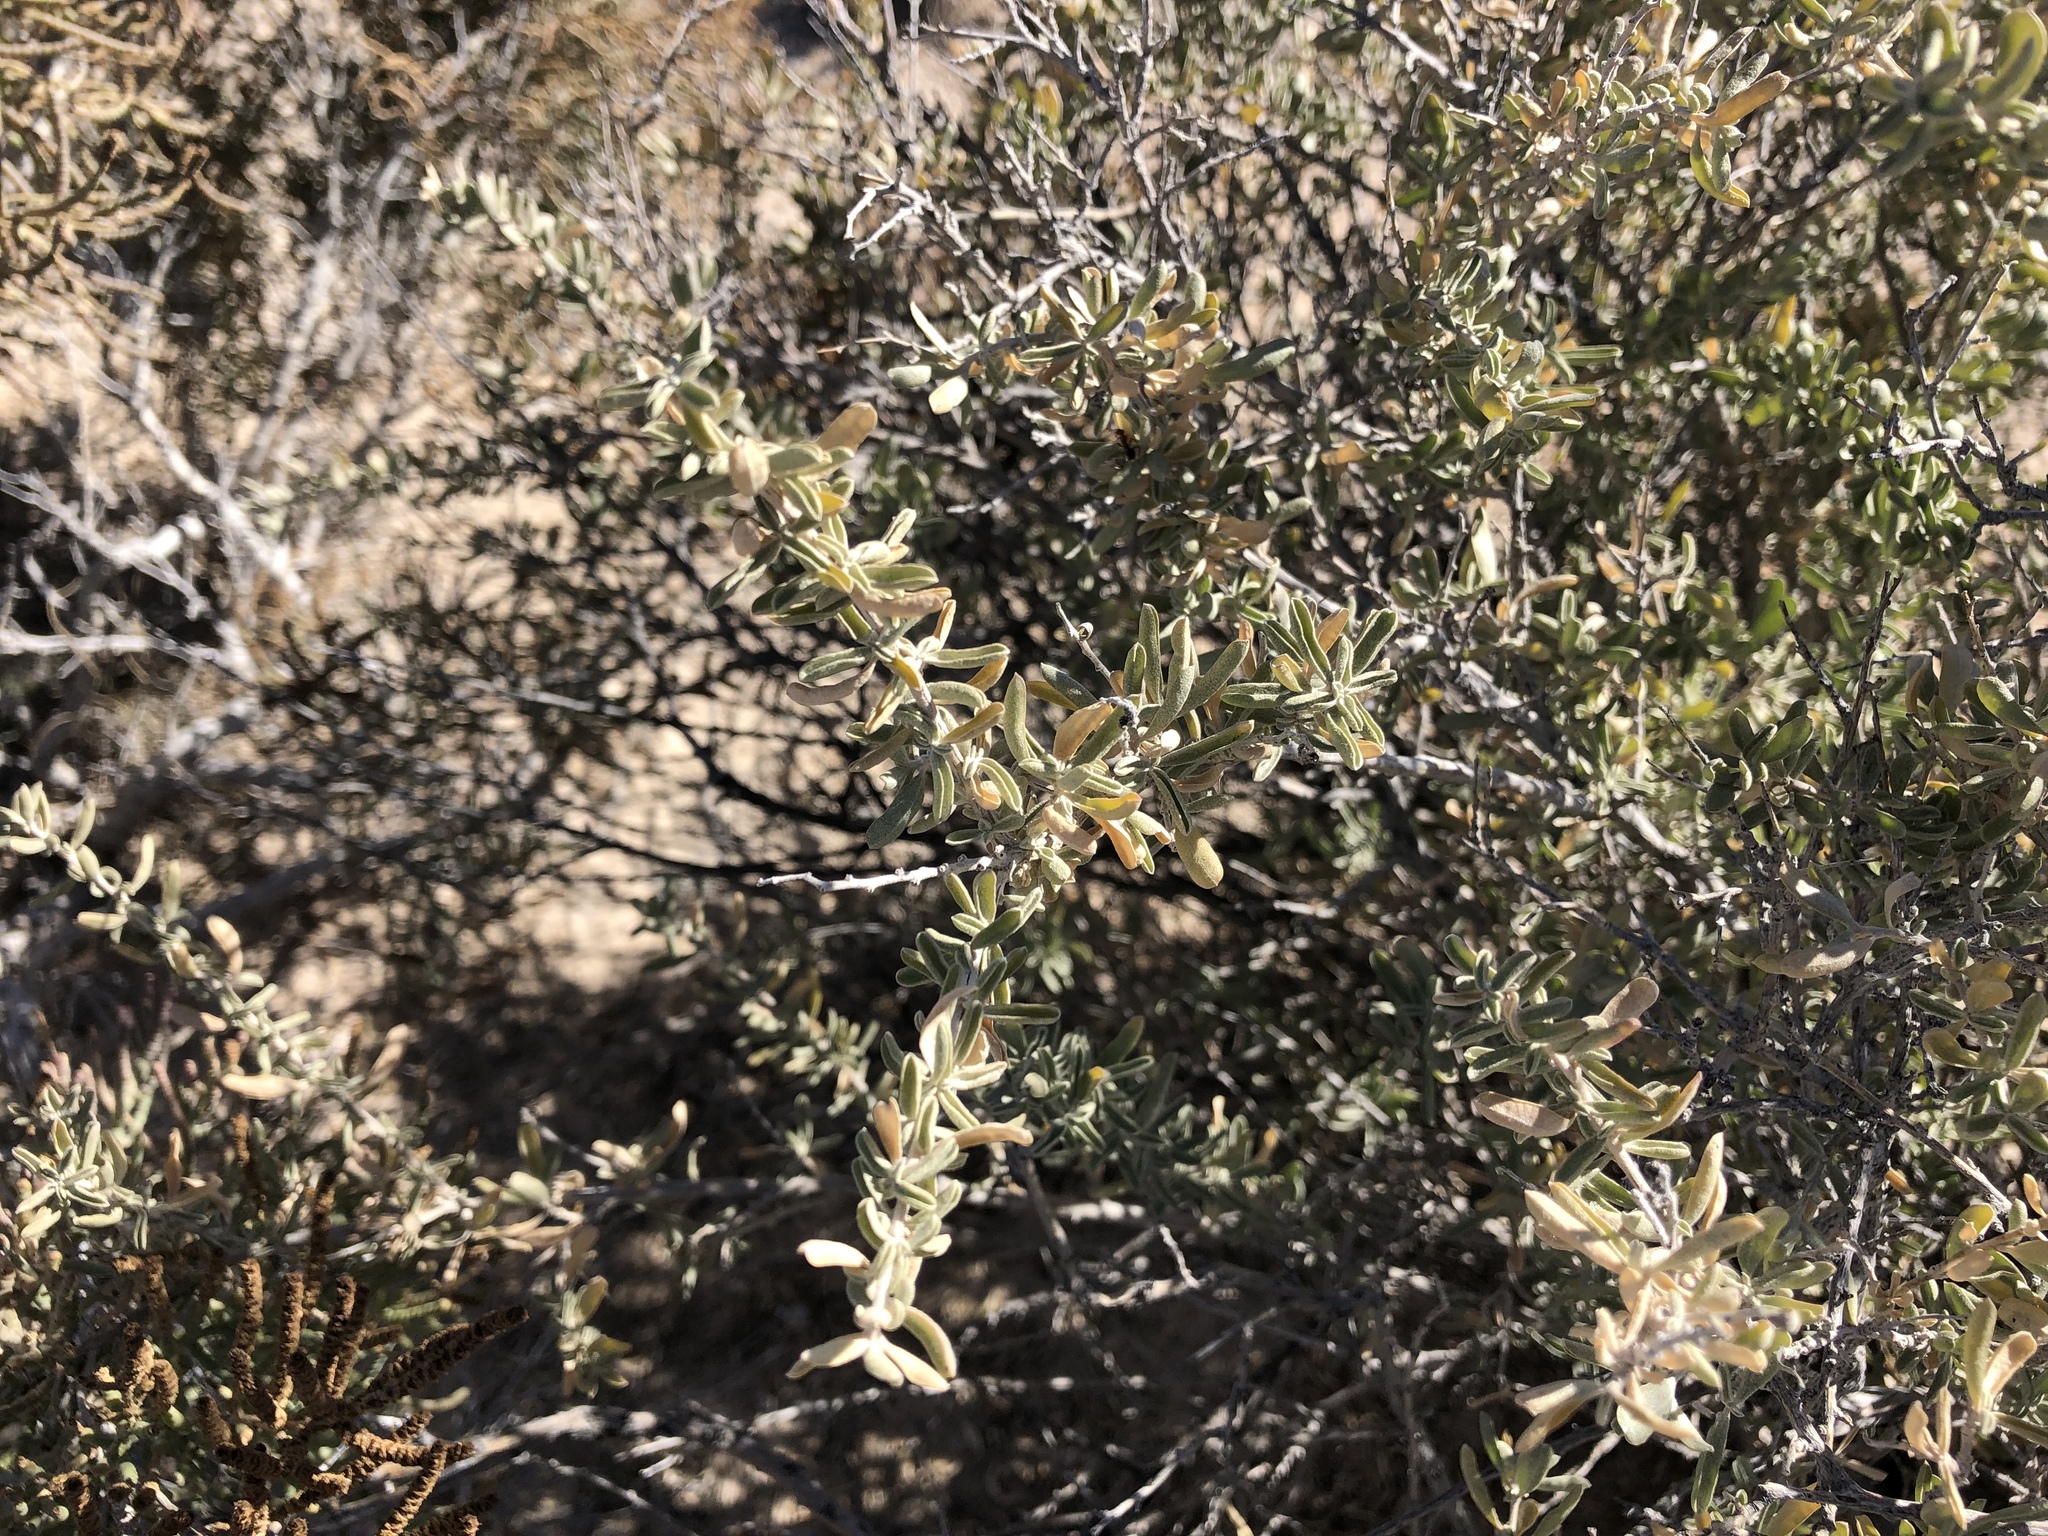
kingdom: Plantae
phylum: Tracheophyta
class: Magnoliopsida
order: Caryophyllales
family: Amaranthaceae
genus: Atriplex
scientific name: Atriplex canescens
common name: Four-wing saltbush
